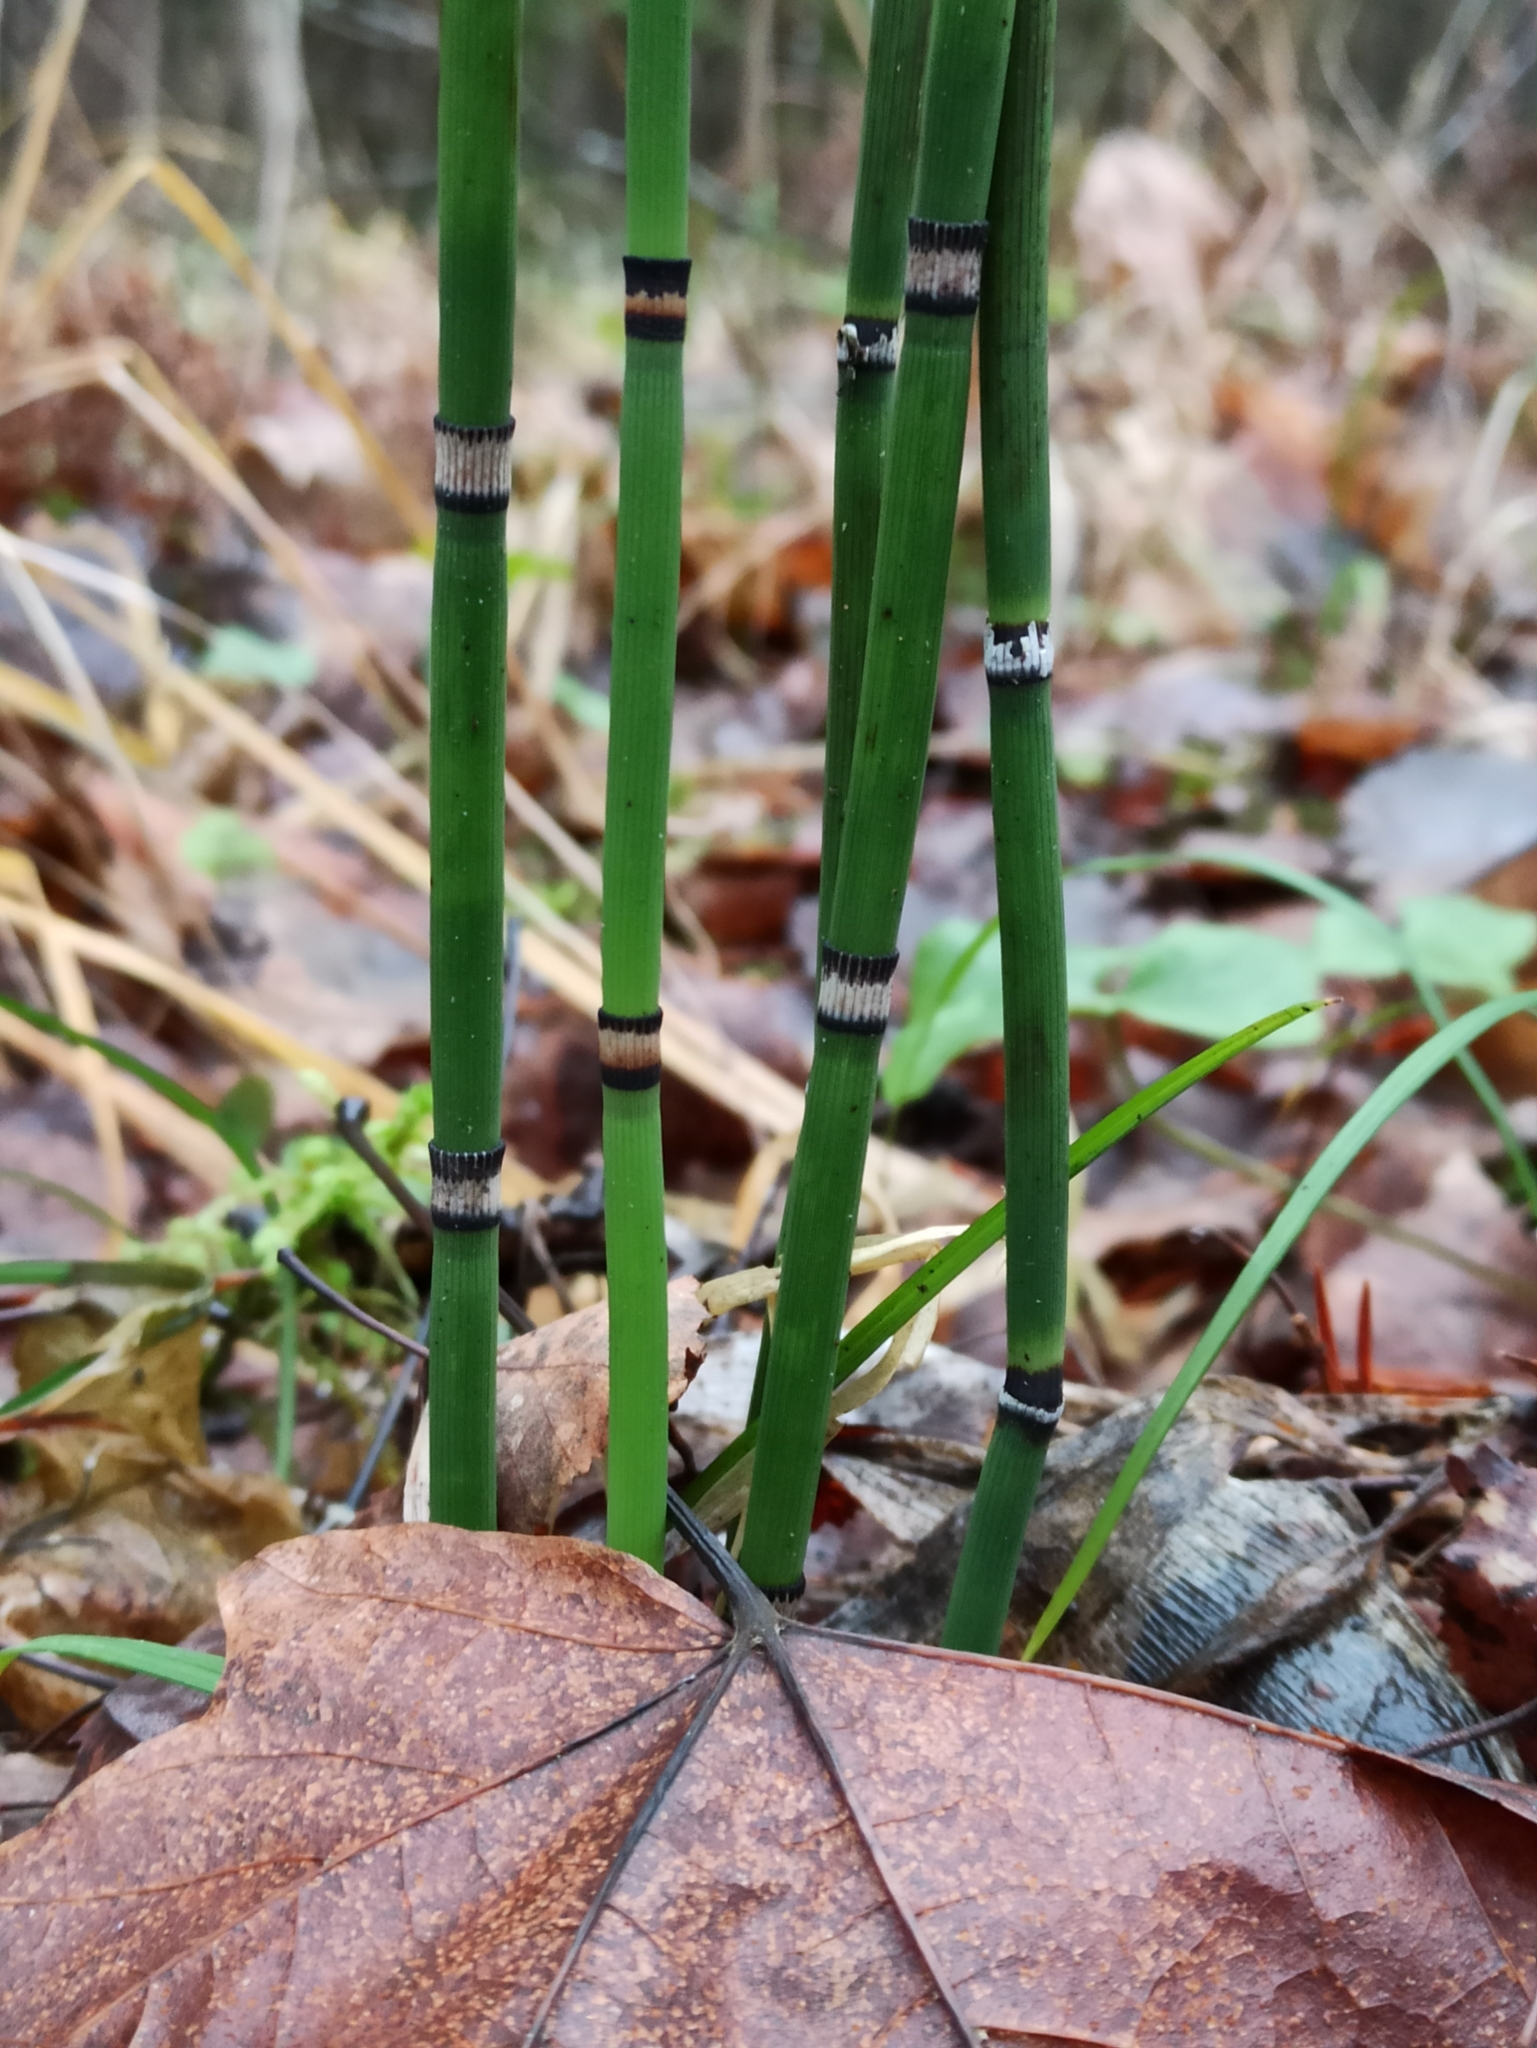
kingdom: Plantae
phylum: Tracheophyta
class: Polypodiopsida
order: Equisetales
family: Equisetaceae
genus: Equisetum
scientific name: Equisetum hyemale
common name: Rough horsetail
